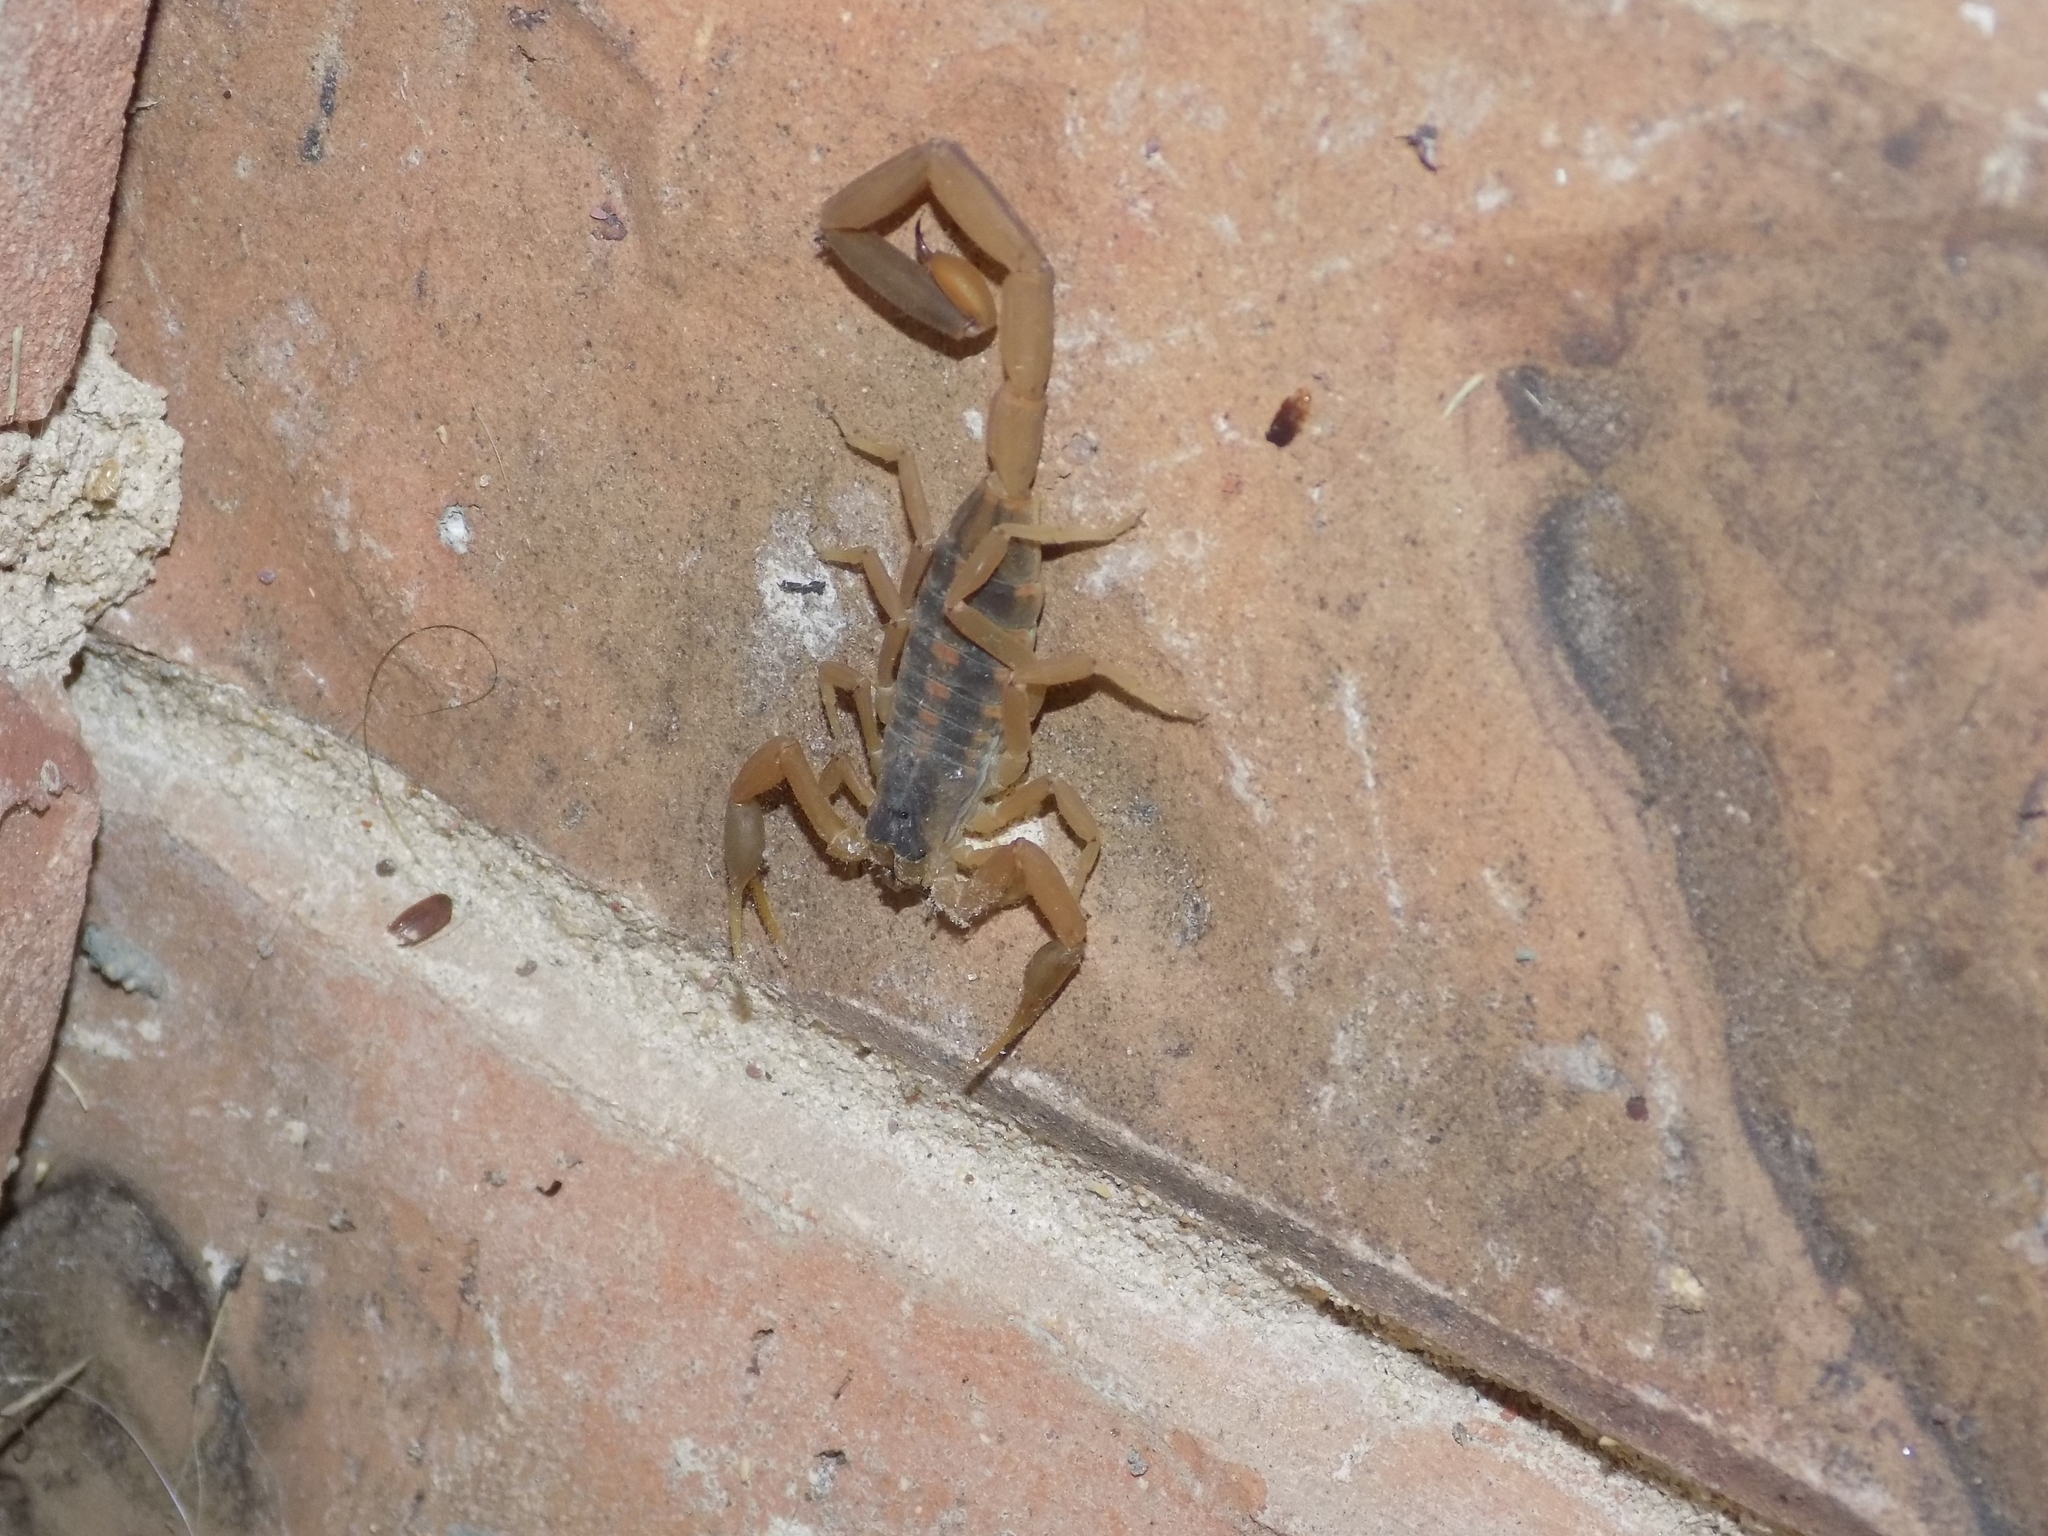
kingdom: Animalia
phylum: Arthropoda
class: Arachnida
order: Scorpiones
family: Buthidae
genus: Centruroides
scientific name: Centruroides vittatus
